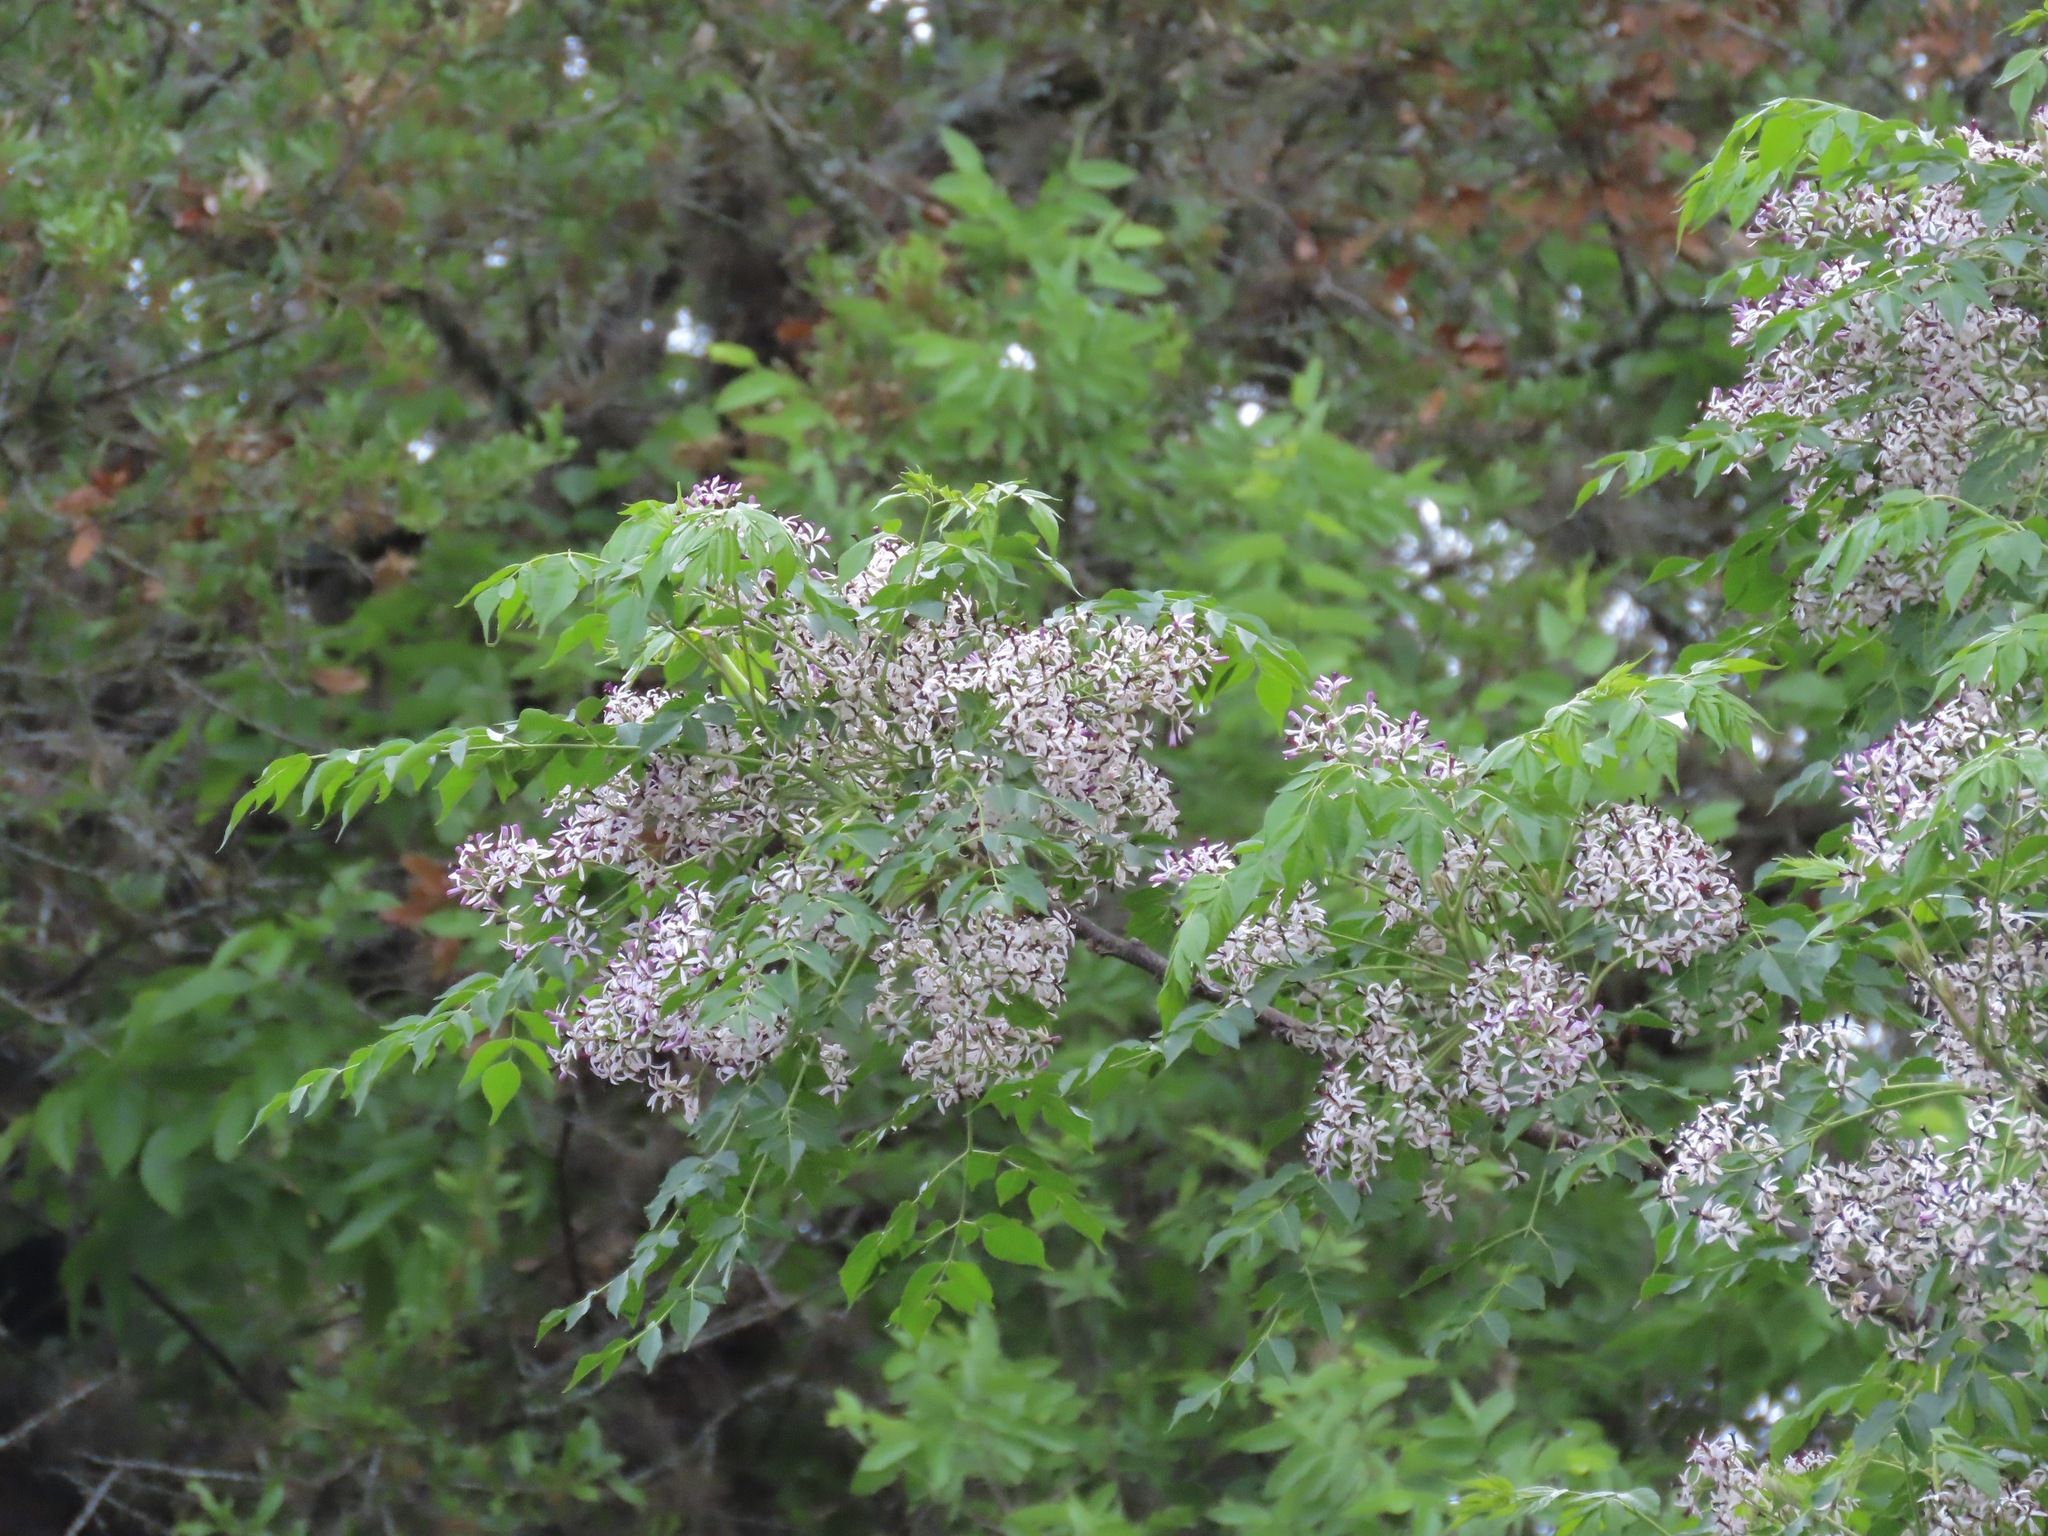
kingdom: Plantae
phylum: Tracheophyta
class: Magnoliopsida
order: Sapindales
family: Meliaceae
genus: Melia
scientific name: Melia azedarach
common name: Chinaberrytree
